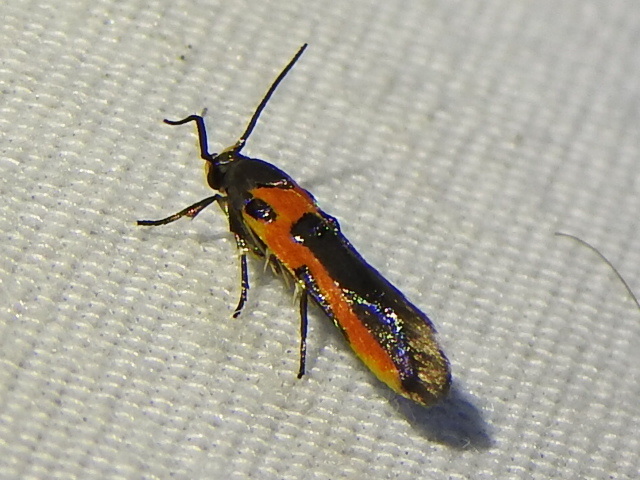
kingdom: Animalia
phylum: Arthropoda
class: Insecta
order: Lepidoptera
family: Cosmopterigidae
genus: Euclemensia
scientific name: Euclemensia bassettella
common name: Kermes scale moth
